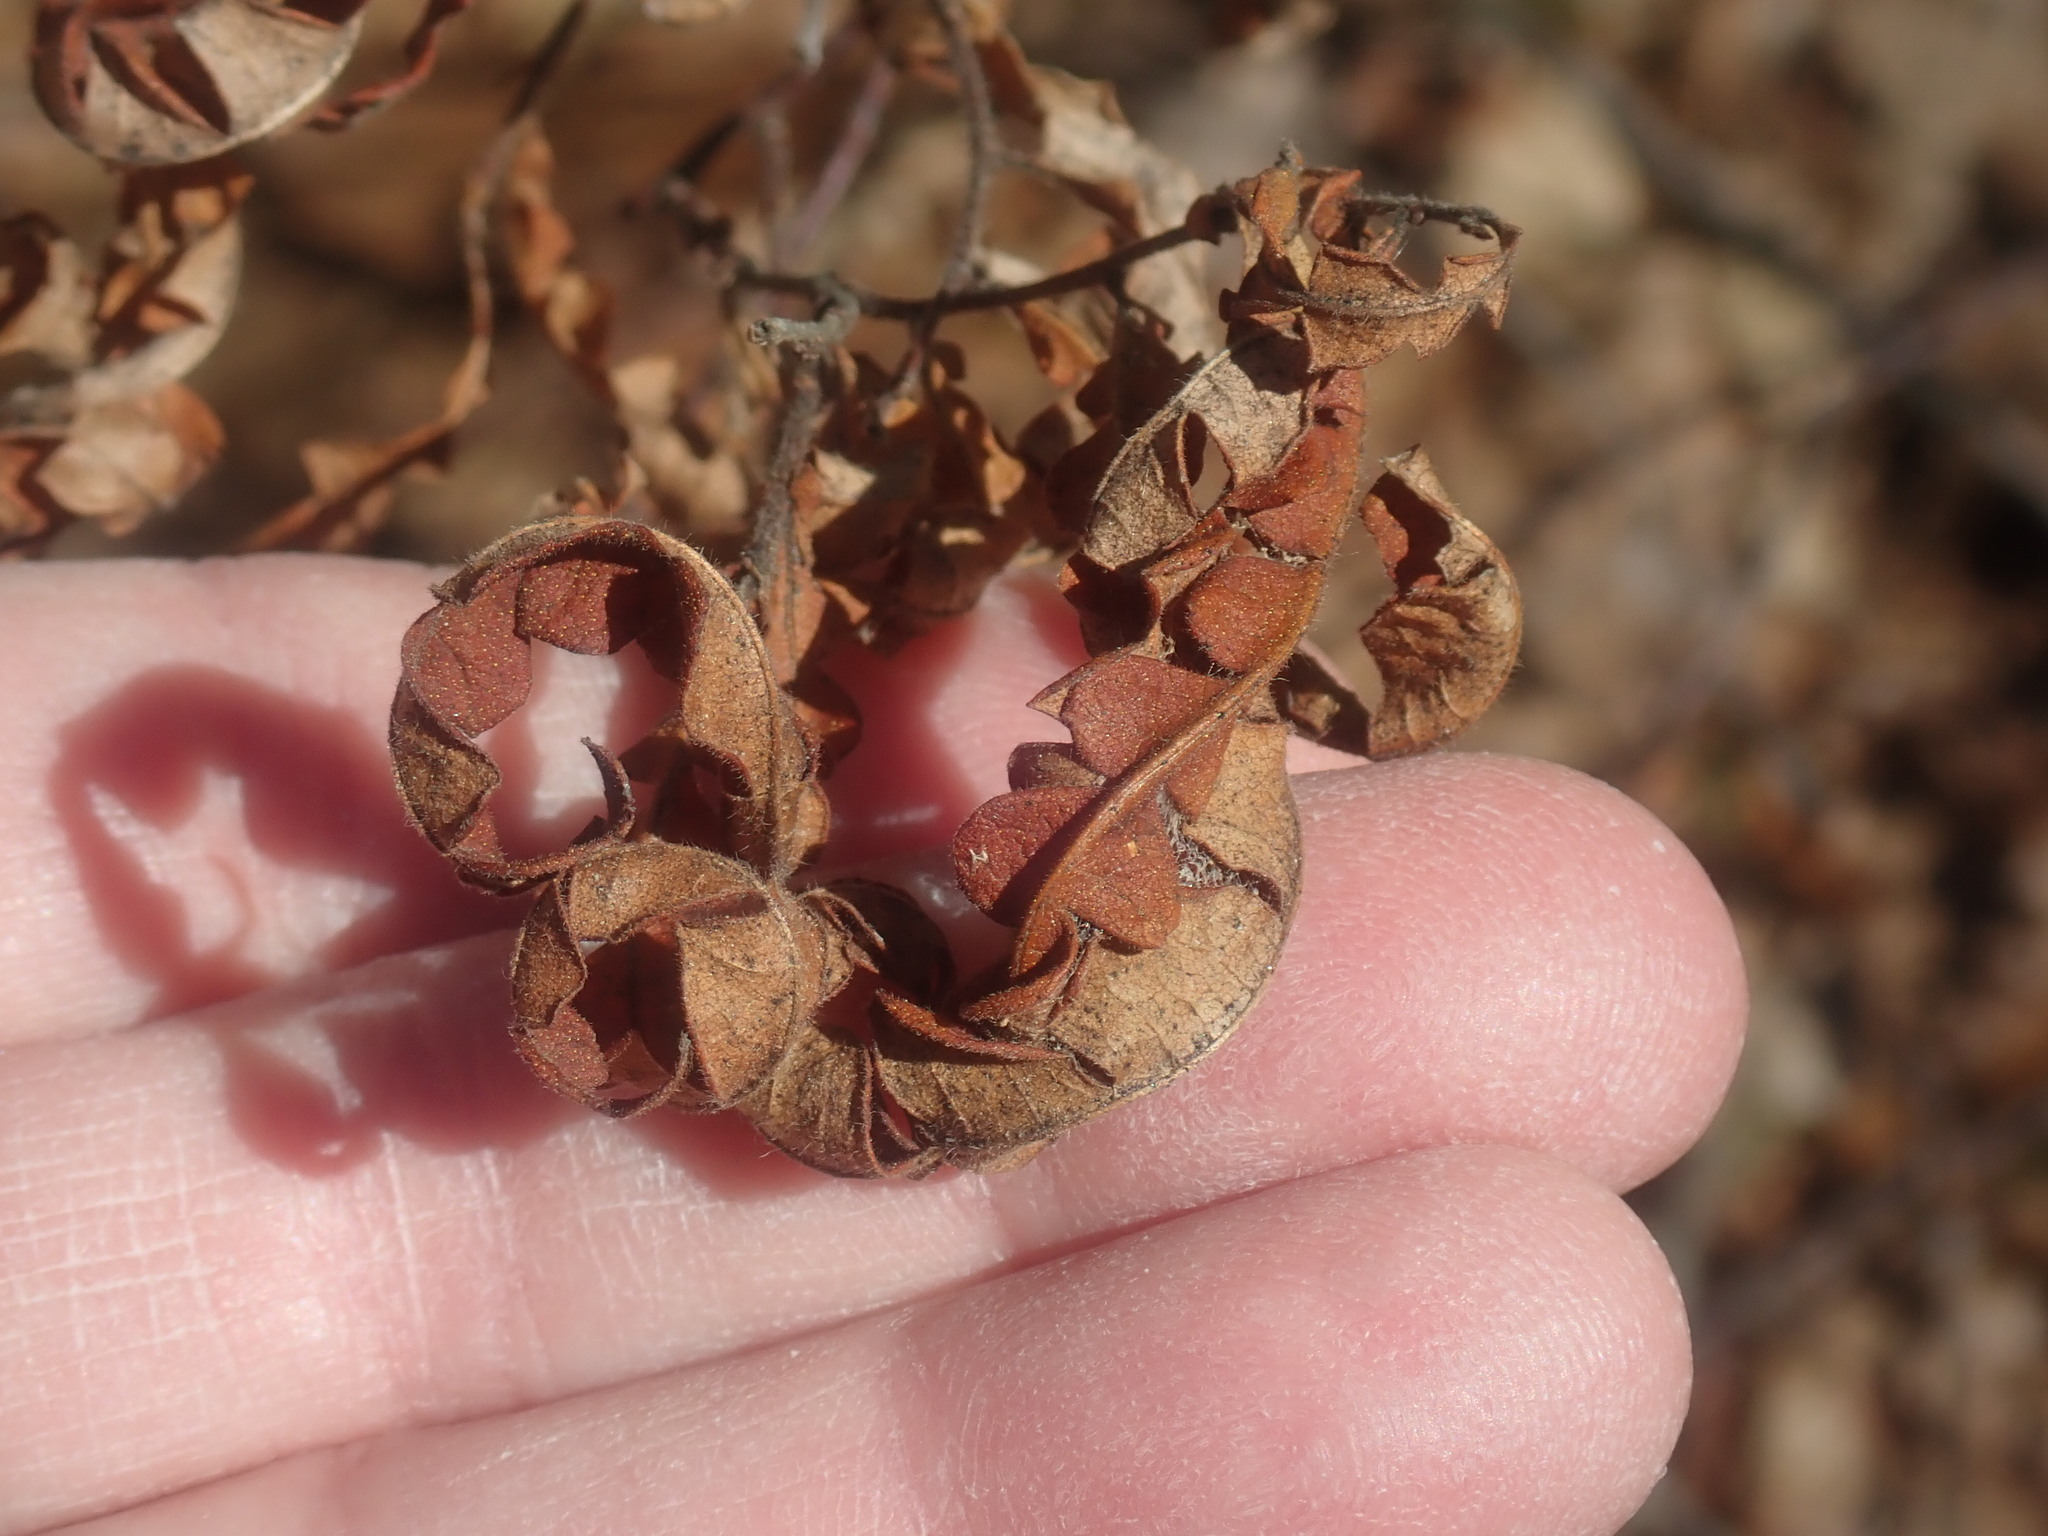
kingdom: Plantae
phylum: Tracheophyta
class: Magnoliopsida
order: Fagales
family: Myricaceae
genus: Comptonia
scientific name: Comptonia peregrina
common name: Sweet-fern
